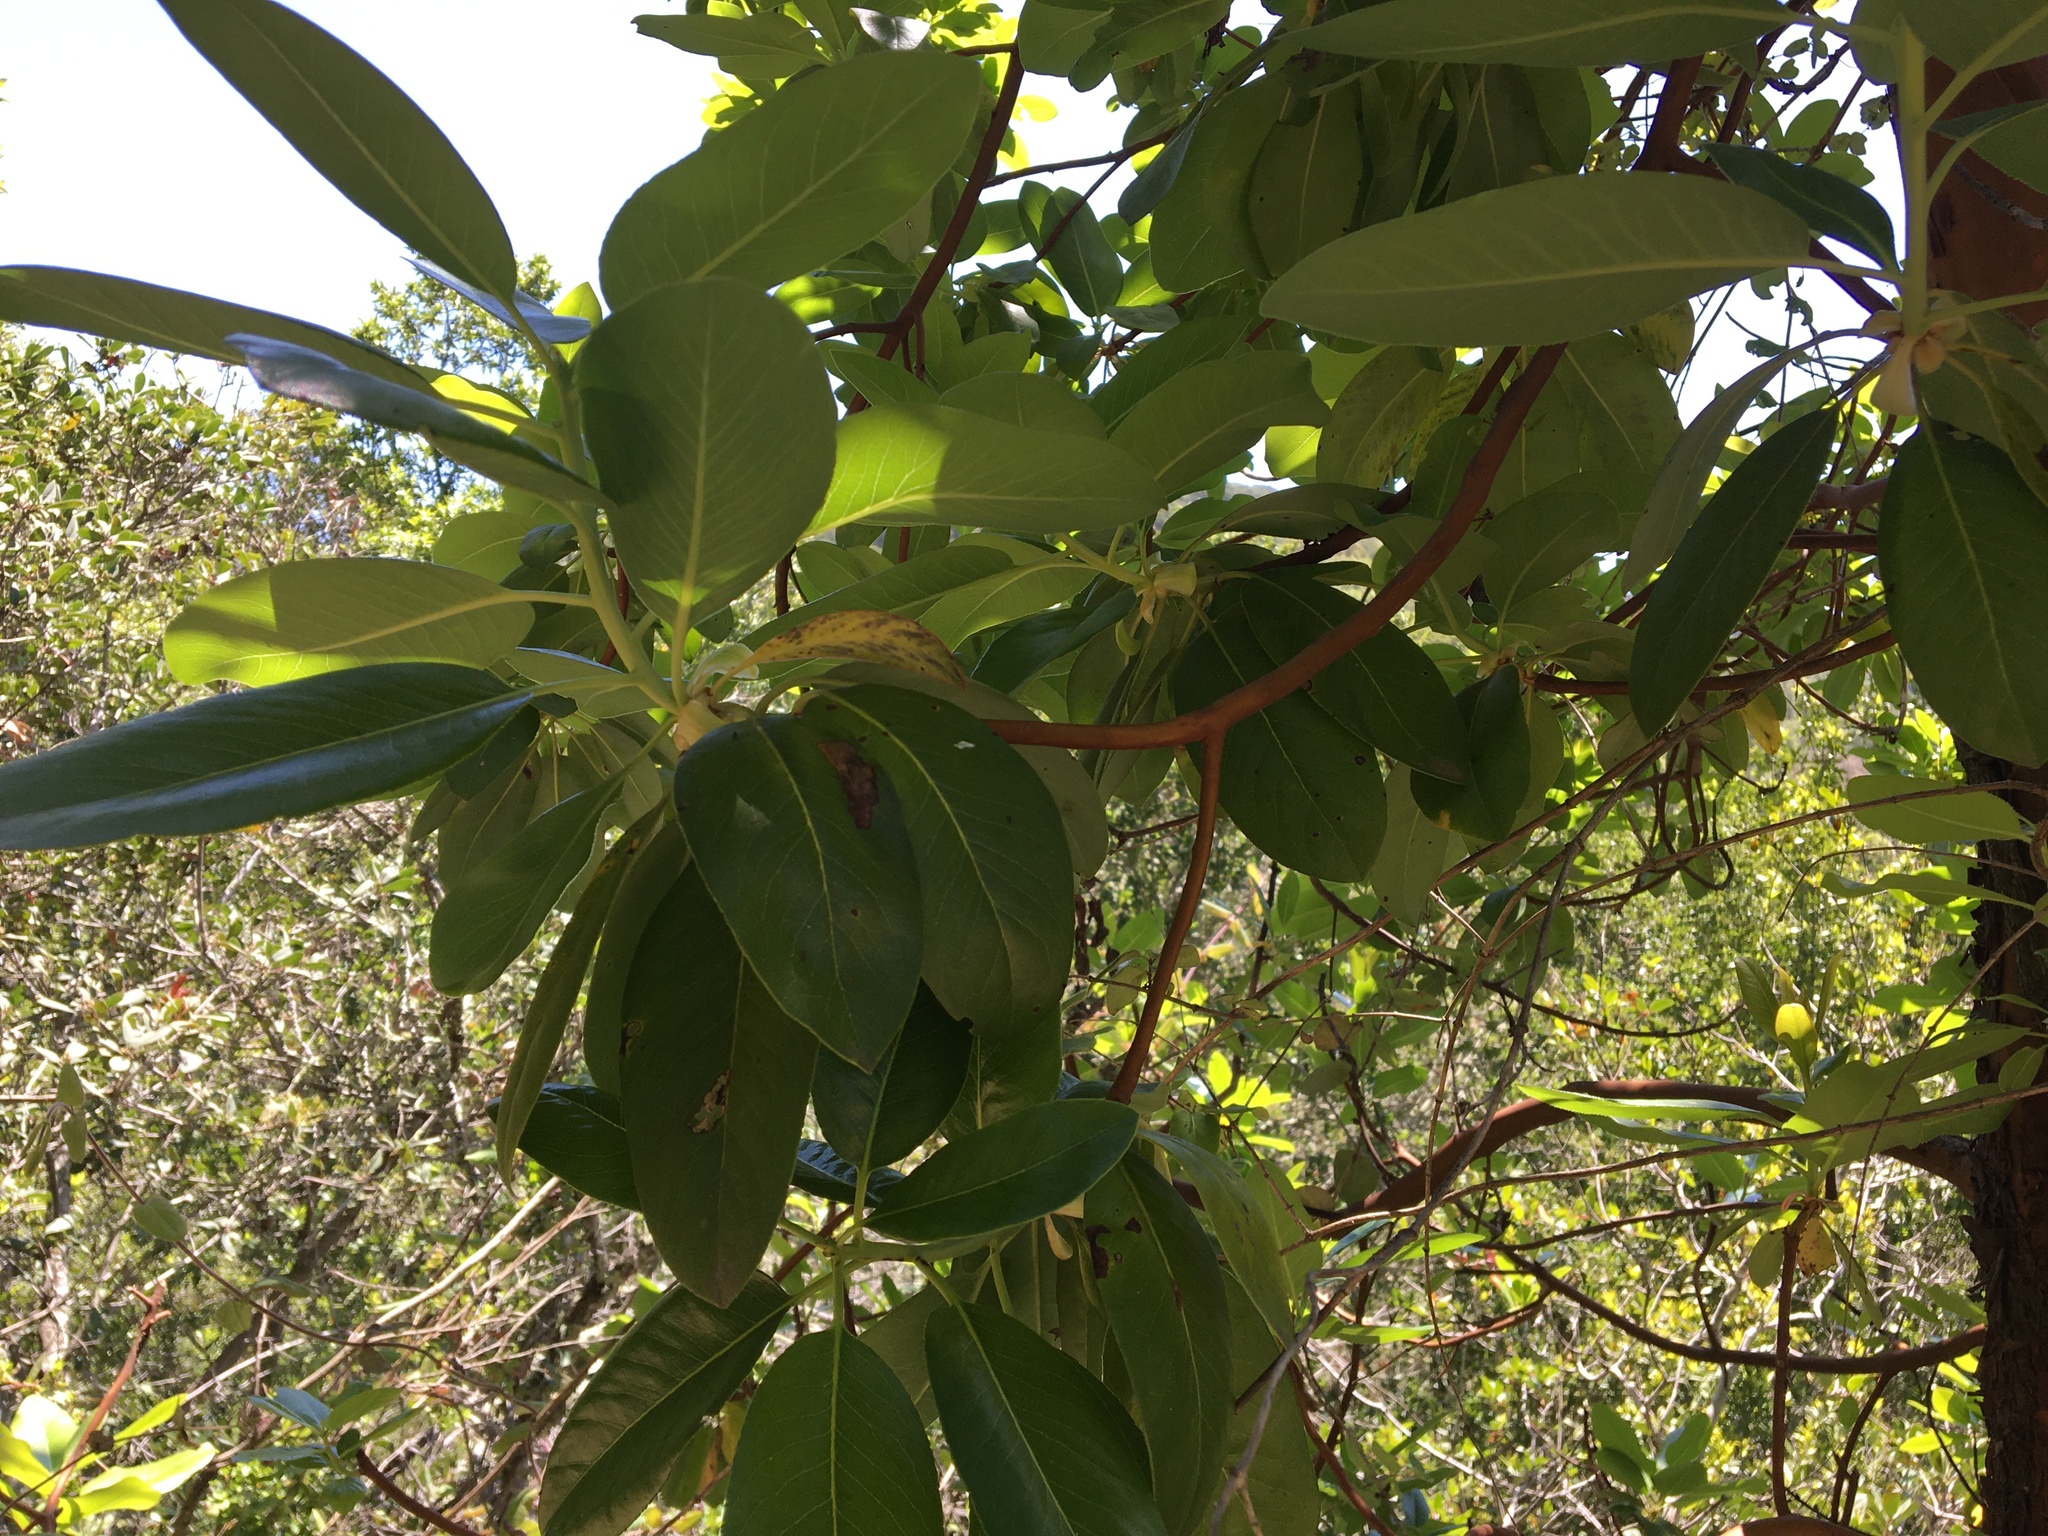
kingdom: Plantae
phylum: Tracheophyta
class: Magnoliopsida
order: Ericales
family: Ericaceae
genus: Arbutus
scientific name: Arbutus menziesii
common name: Pacific madrone
